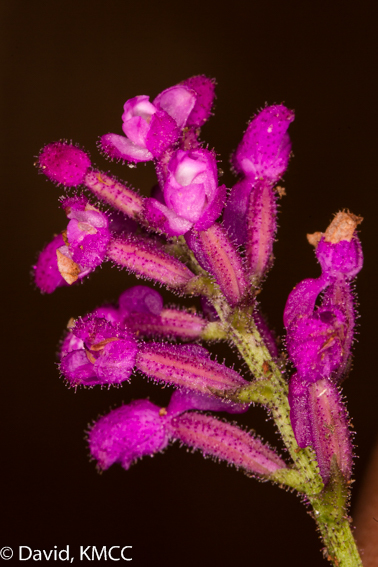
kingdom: Plantae
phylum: Tracheophyta
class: Liliopsida
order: Asparagales
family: Orchidaceae
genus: Cynorkis
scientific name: Cynorkis peyrotii
